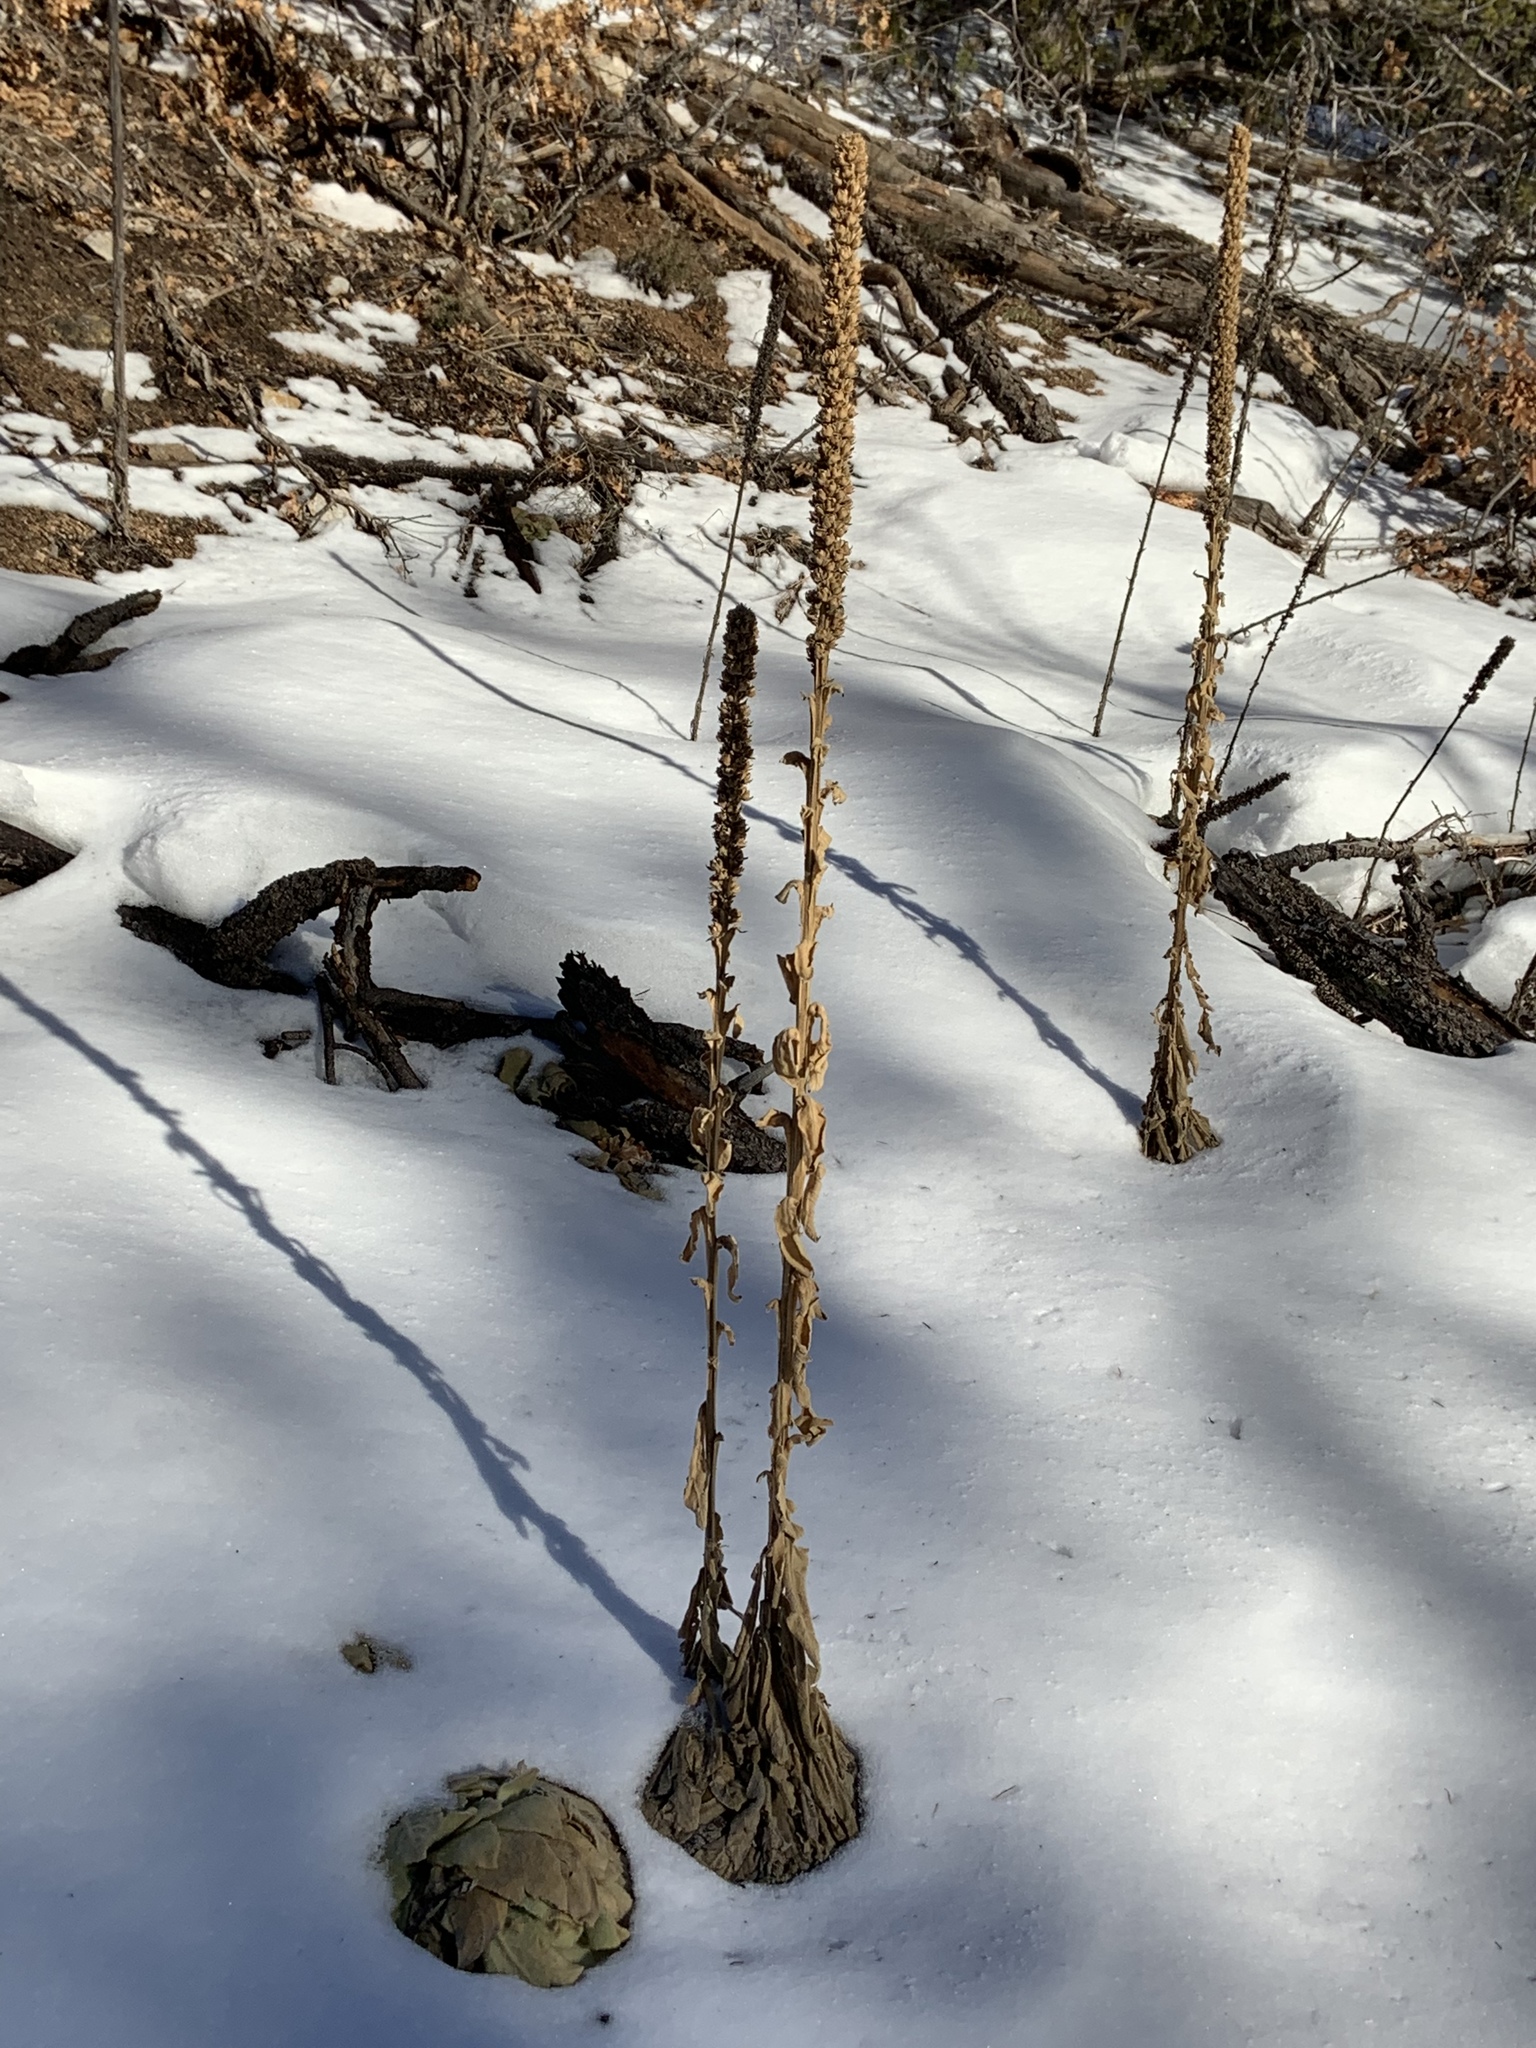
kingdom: Plantae
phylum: Tracheophyta
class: Magnoliopsida
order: Lamiales
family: Scrophulariaceae
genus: Verbascum
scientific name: Verbascum thapsus
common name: Common mullein
